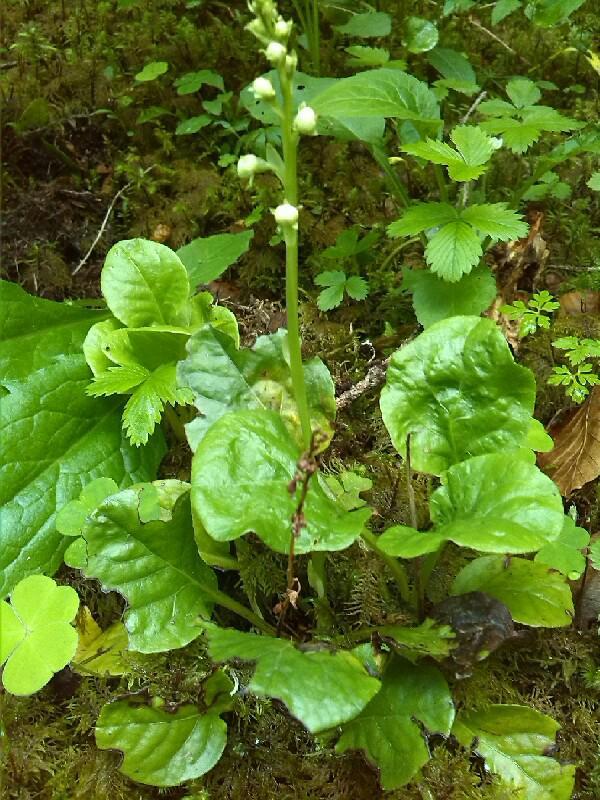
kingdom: Plantae
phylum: Tracheophyta
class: Magnoliopsida
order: Ericales
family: Ericaceae
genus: Pyrola
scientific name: Pyrola rotundifolia
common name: Round-leaved wintergreen
